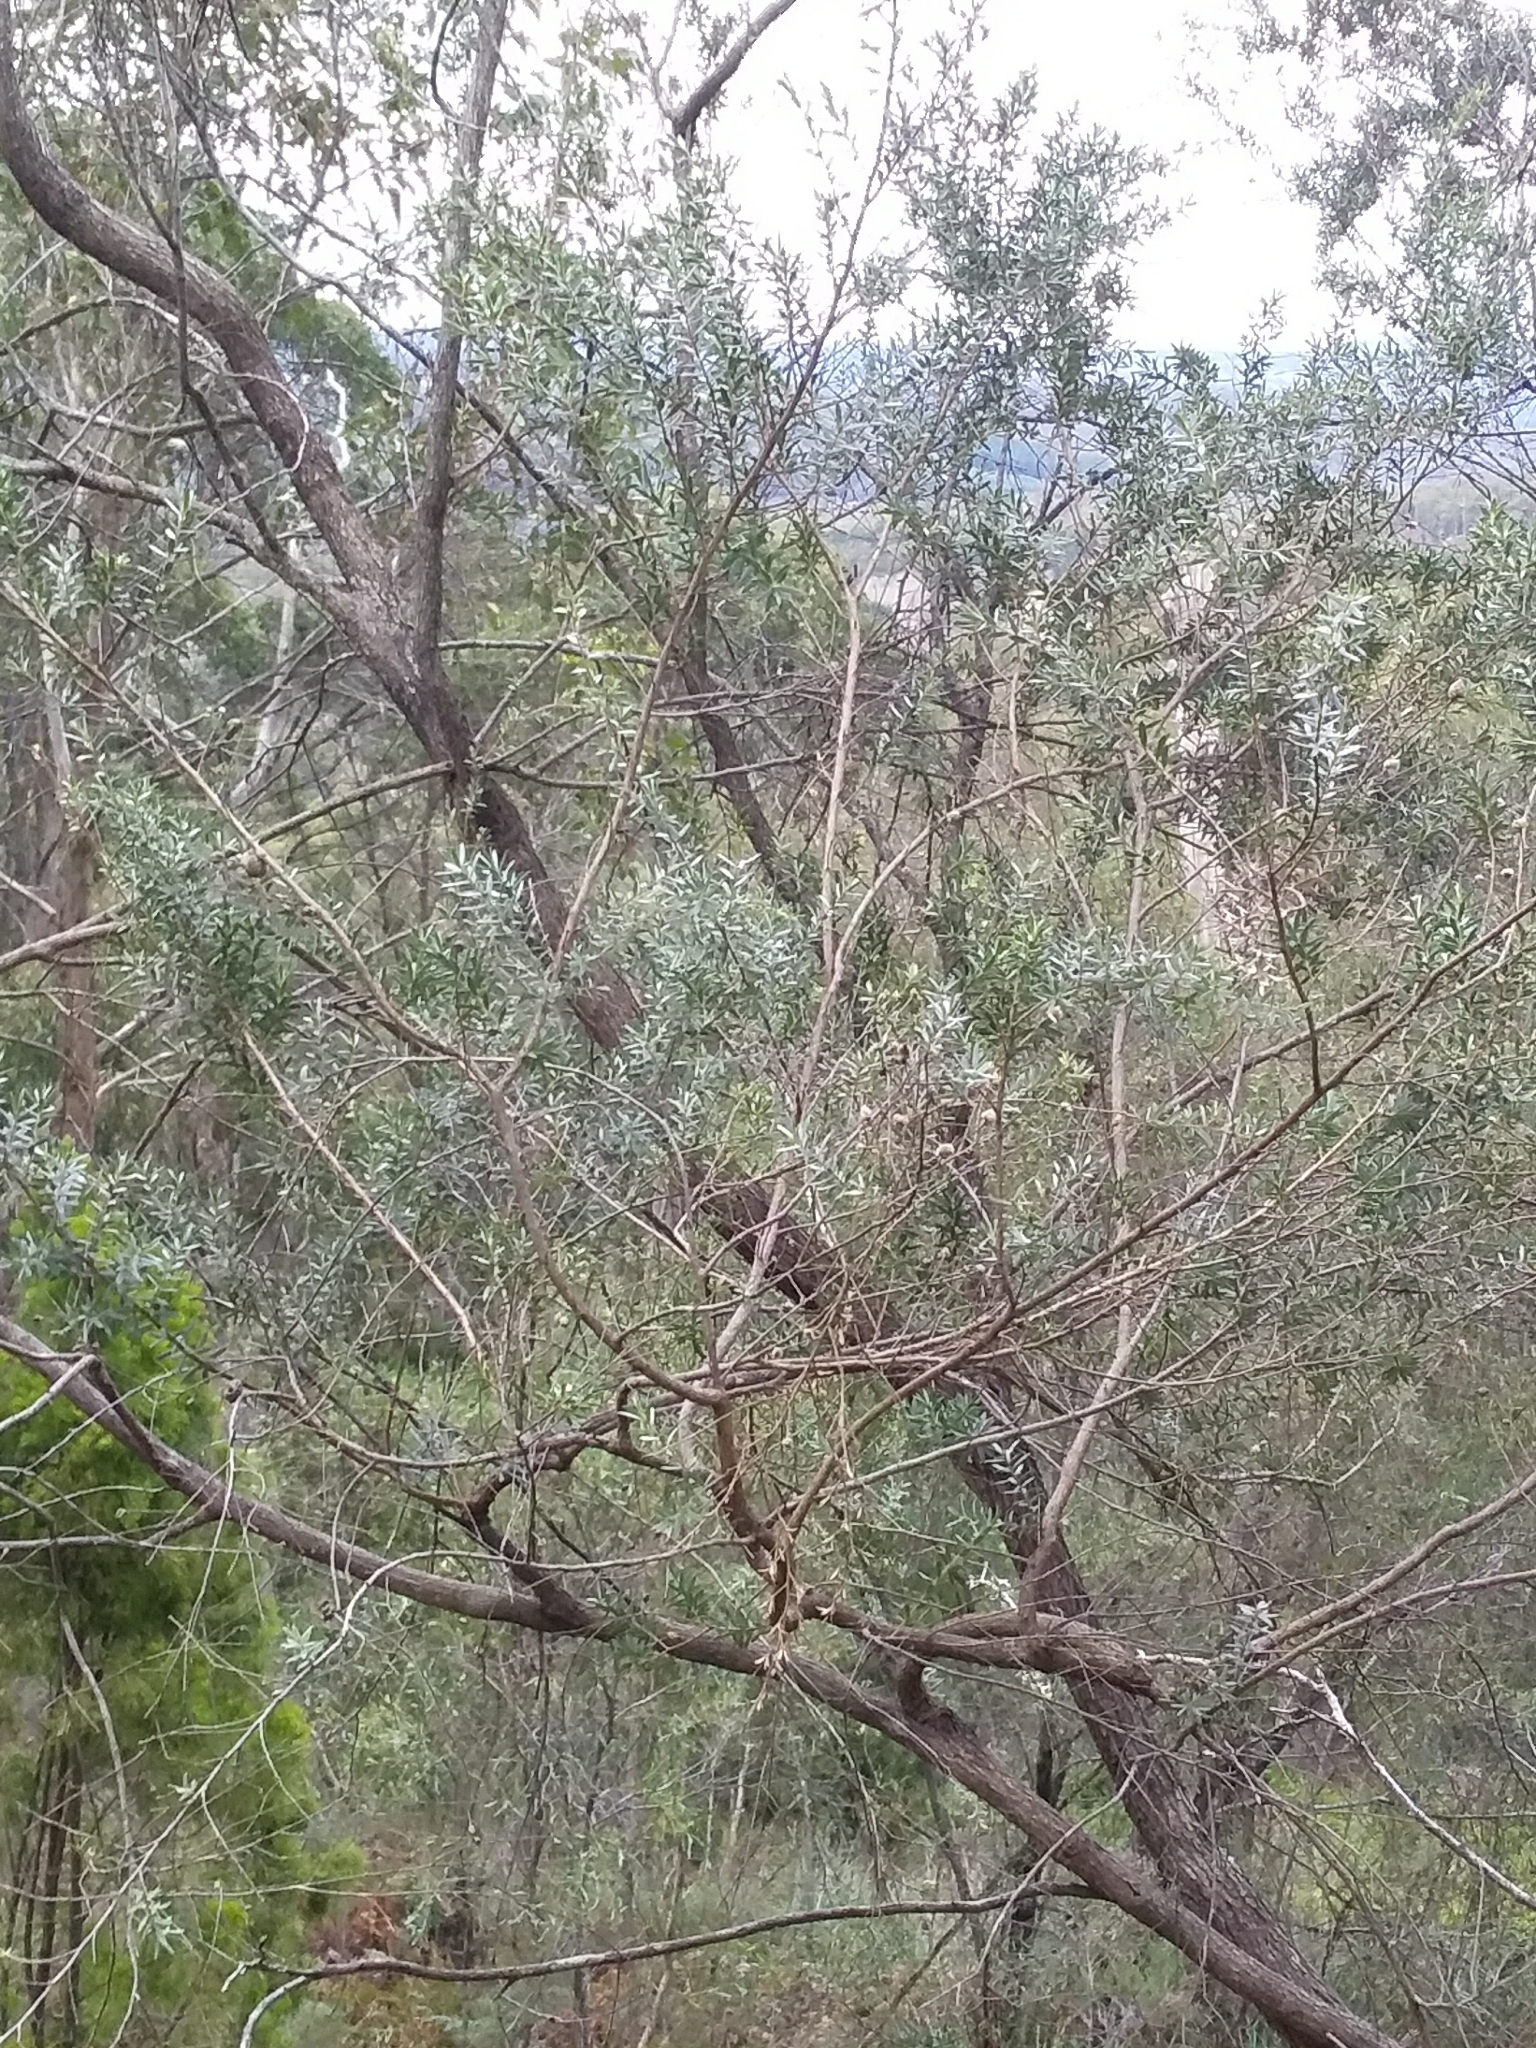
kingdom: Plantae
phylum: Tracheophyta
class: Magnoliopsida
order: Myrtales
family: Myrtaceae
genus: Leptospermum
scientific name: Leptospermum lanigerum
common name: Woolly tea-tree
